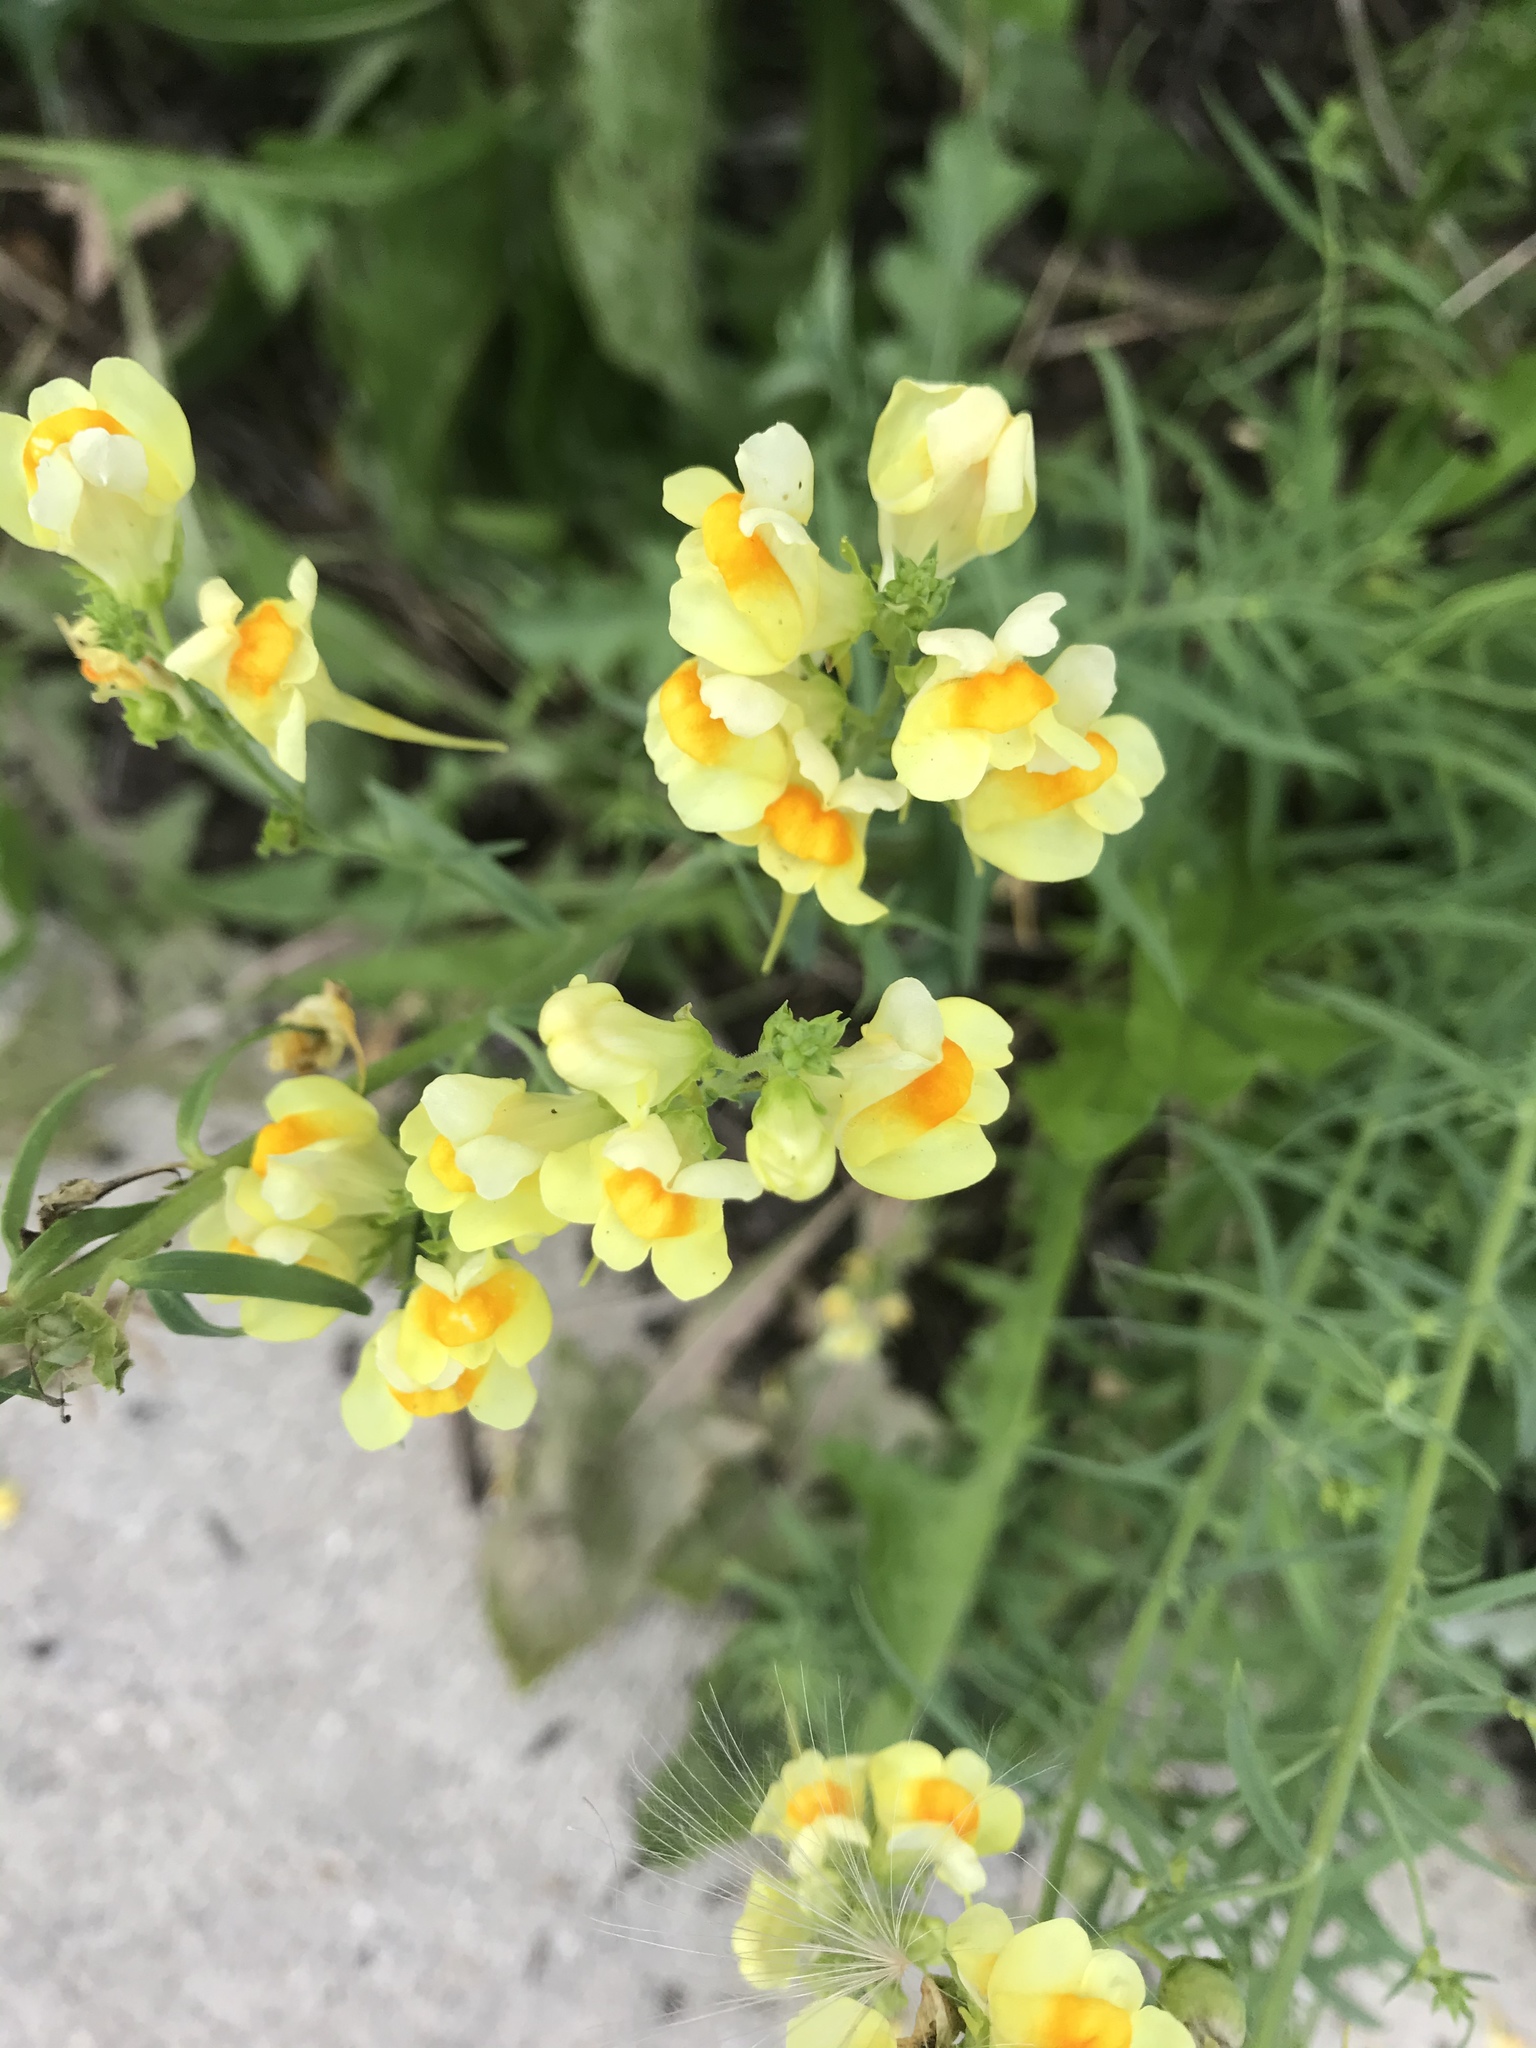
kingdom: Plantae
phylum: Tracheophyta
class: Magnoliopsida
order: Lamiales
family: Plantaginaceae
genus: Linaria
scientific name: Linaria vulgaris
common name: Butter and eggs
